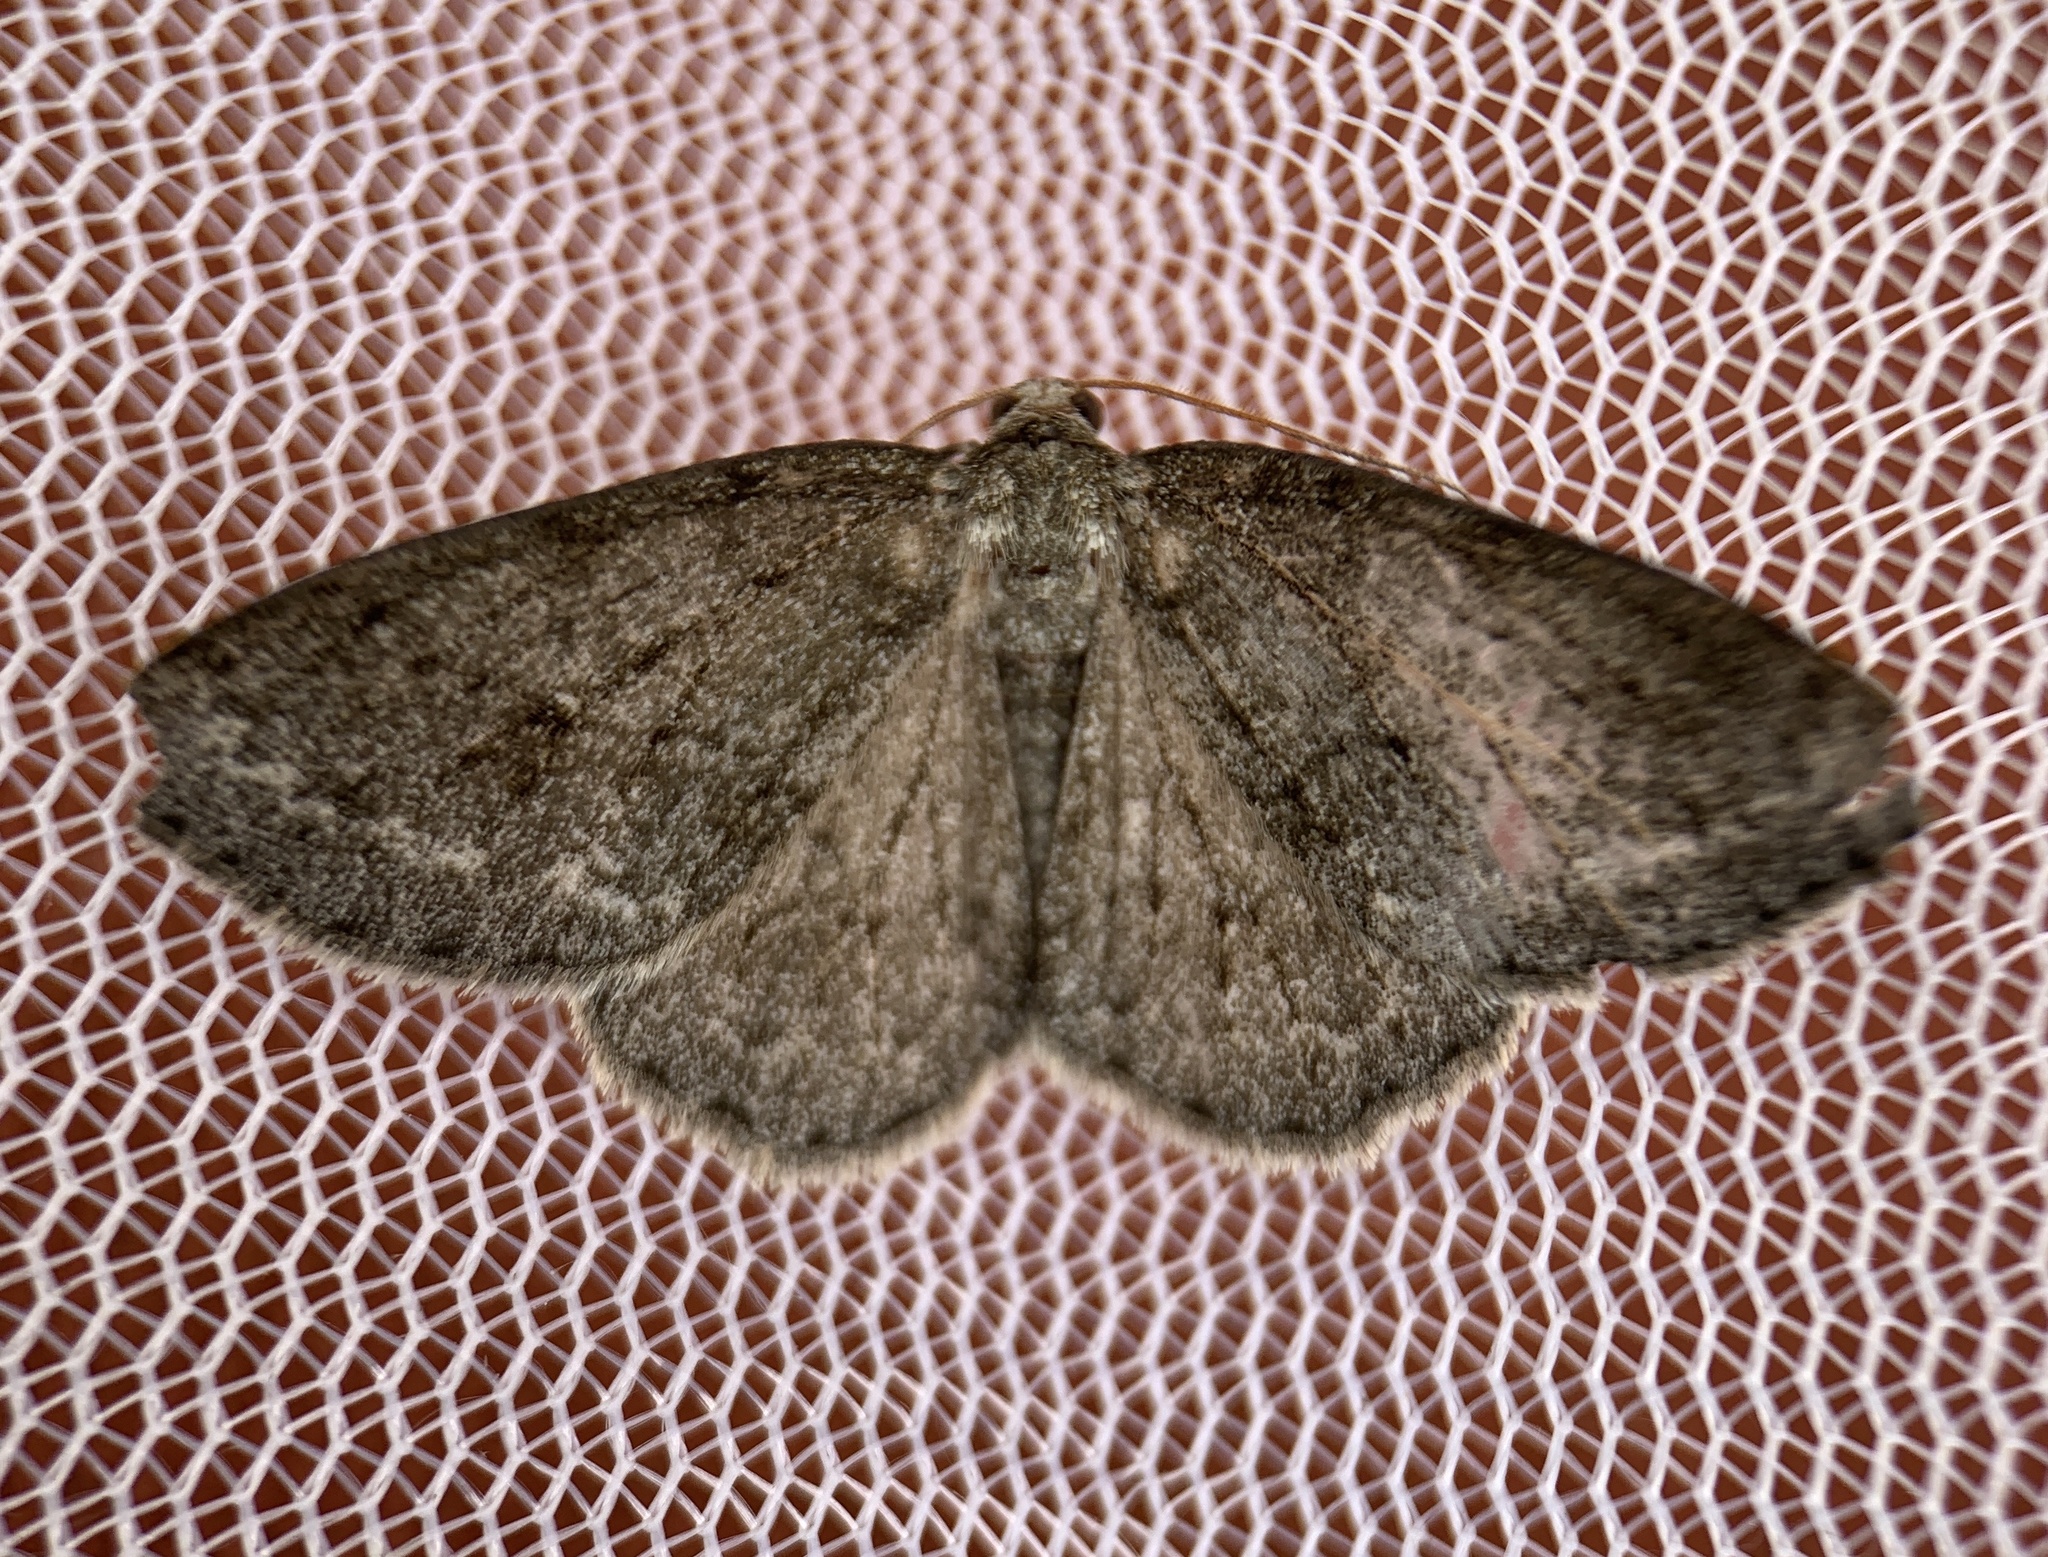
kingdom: Animalia
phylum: Arthropoda
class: Insecta
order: Lepidoptera
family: Geometridae
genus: Ectropis
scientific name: Ectropis crepuscularia
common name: Engrailed
